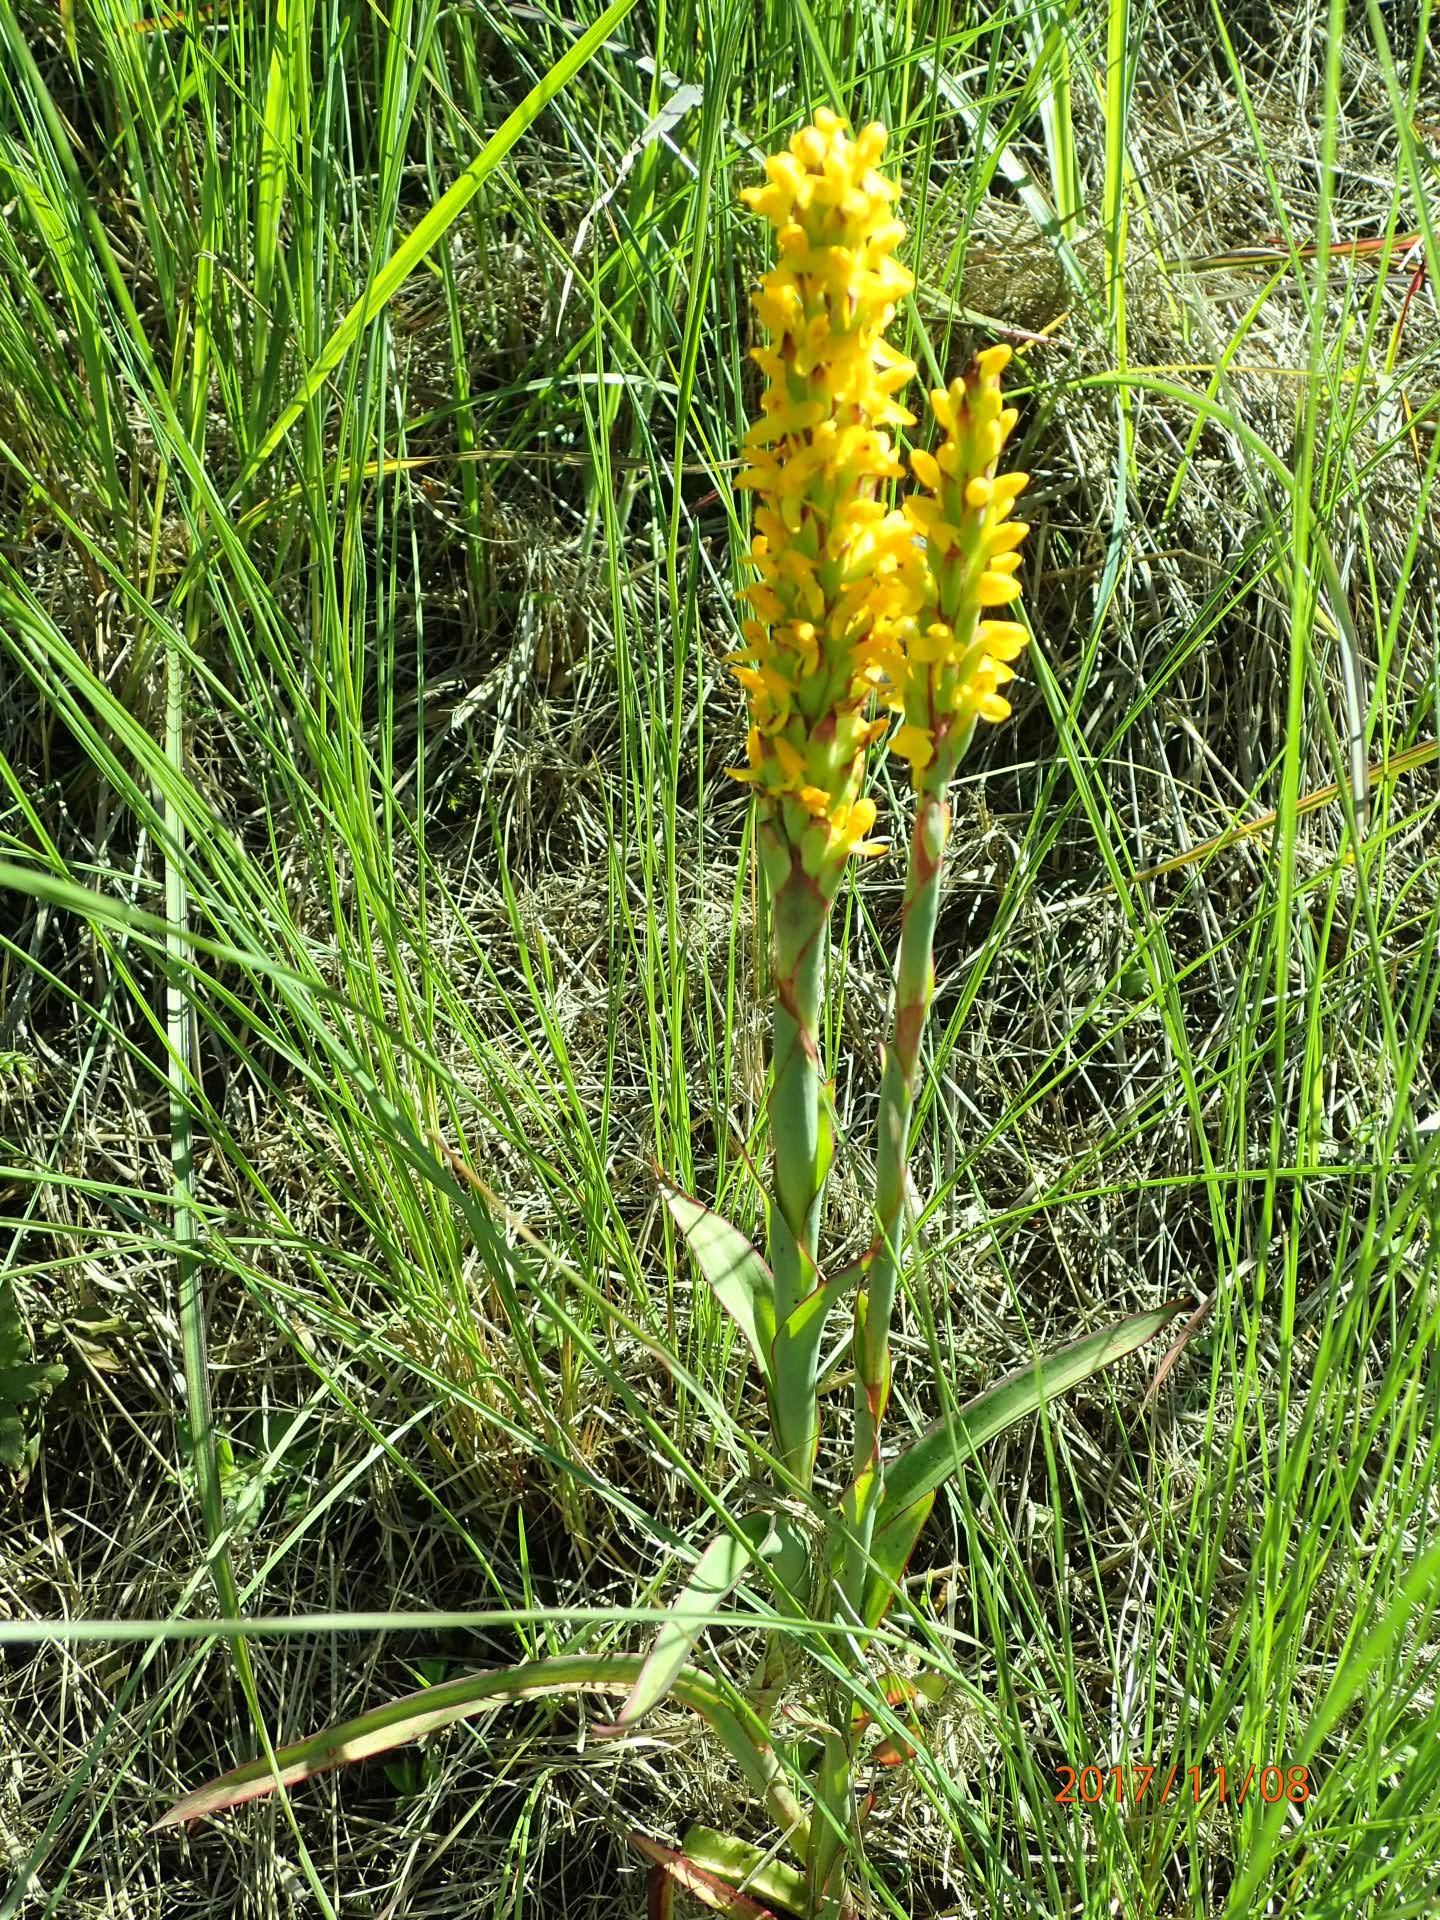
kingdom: Plantae
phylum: Tracheophyta
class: Liliopsida
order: Asparagales
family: Orchidaceae
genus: Disa
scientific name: Disa woodii
